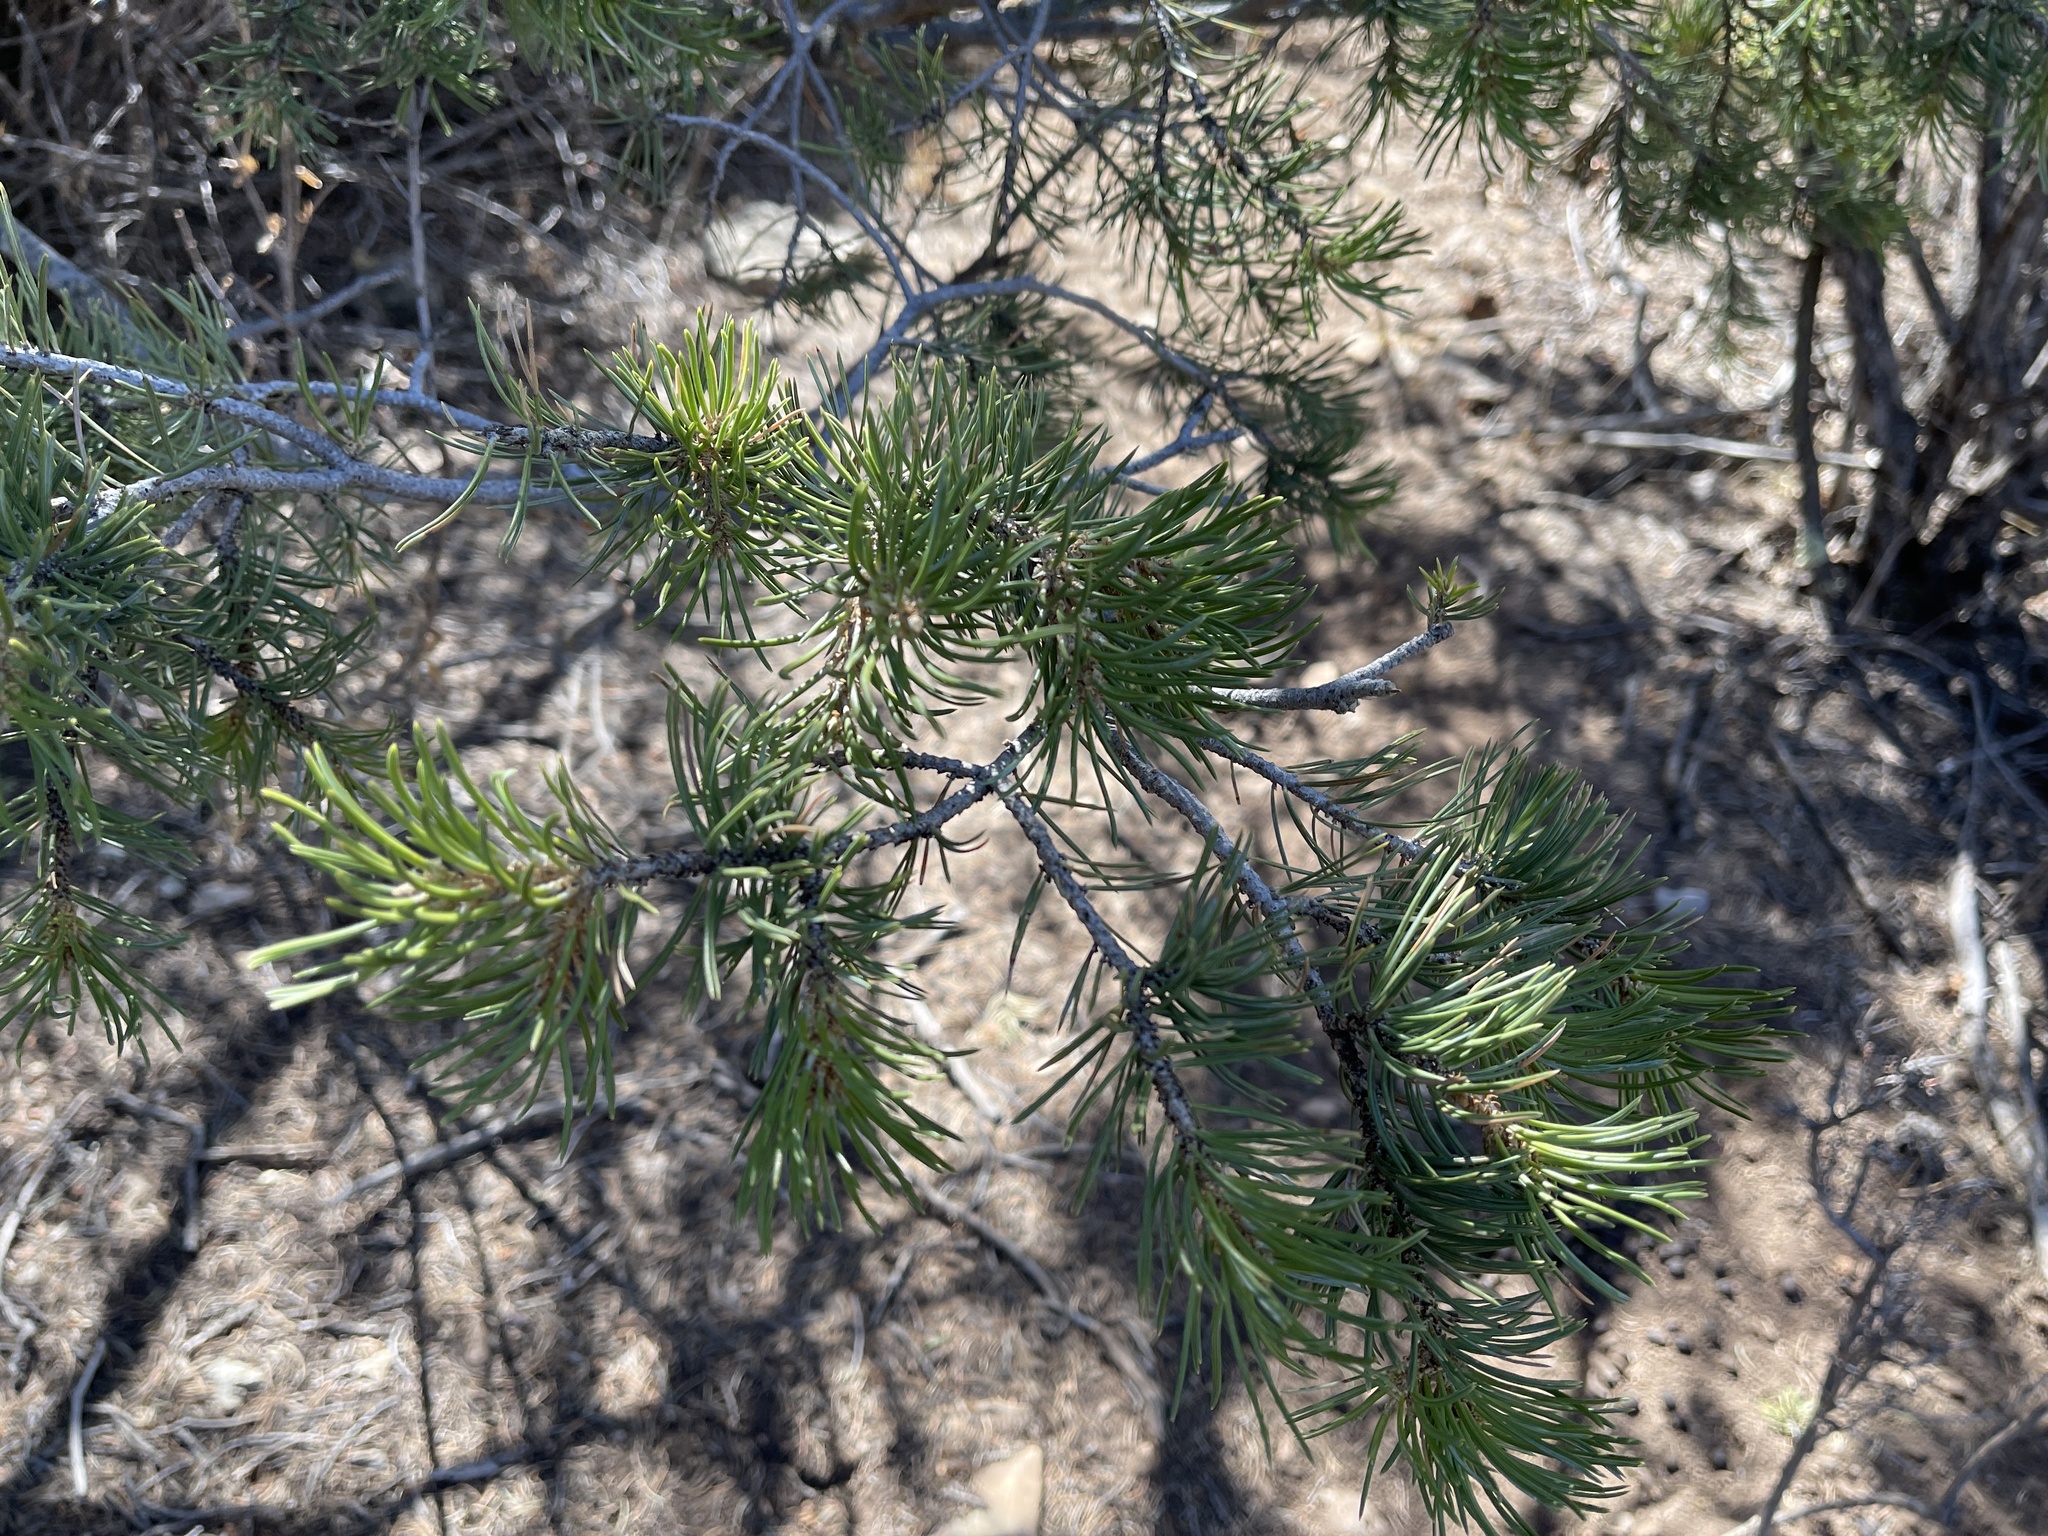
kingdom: Plantae
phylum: Tracheophyta
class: Pinopsida
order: Pinales
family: Pinaceae
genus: Pinus
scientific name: Pinus edulis
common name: Colorado pinyon
